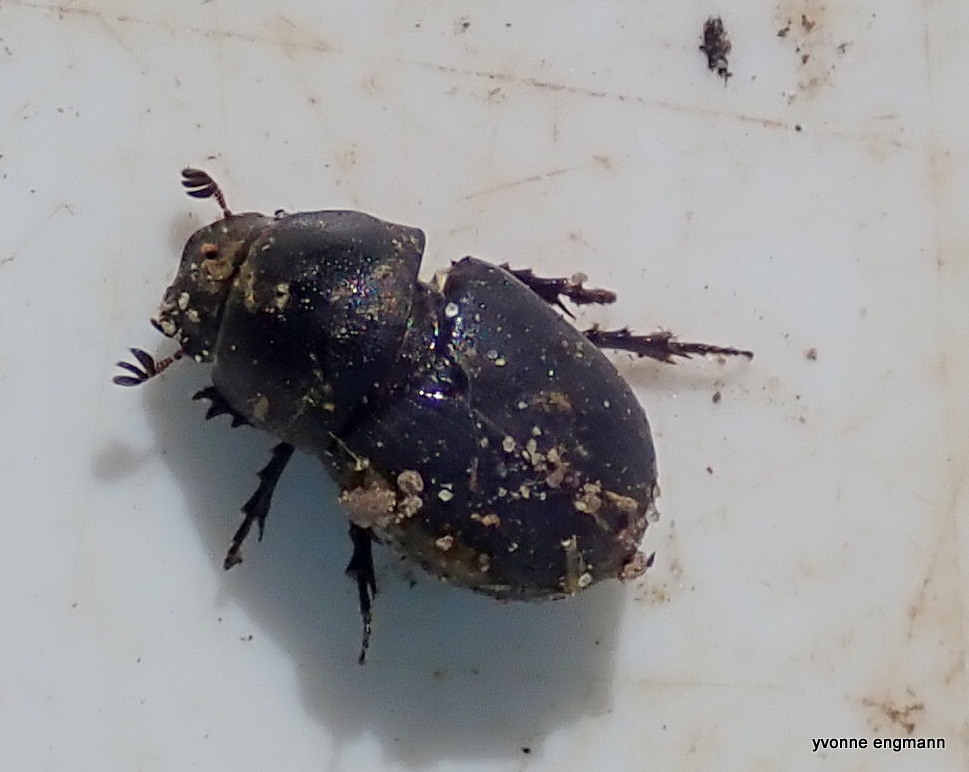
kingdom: Animalia
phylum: Arthropoda
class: Insecta
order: Coleoptera
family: Scarabaeidae
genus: Agrilinus
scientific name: Agrilinus ater
